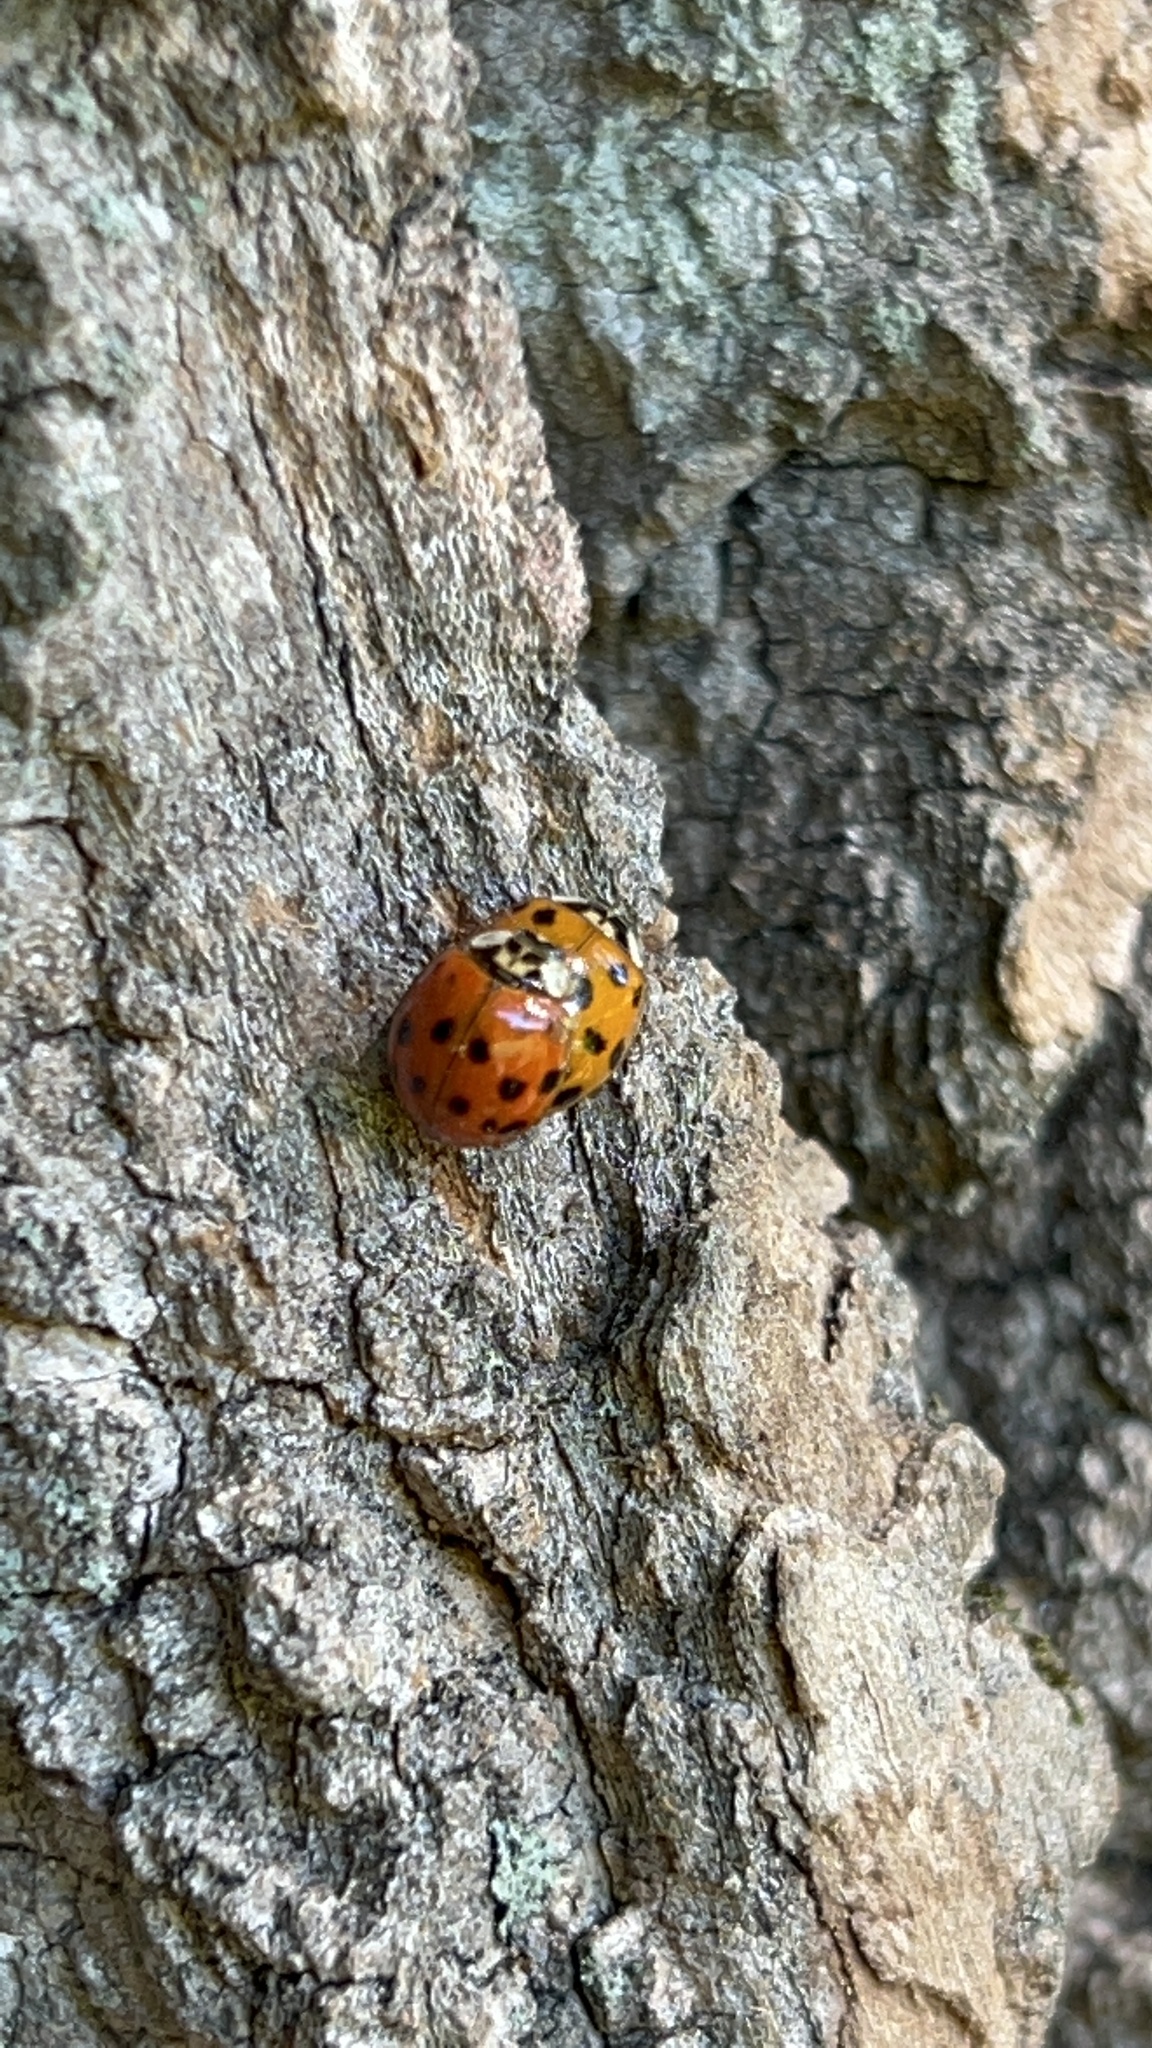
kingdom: Animalia
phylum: Arthropoda
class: Insecta
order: Coleoptera
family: Coccinellidae
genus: Harmonia
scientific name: Harmonia axyridis
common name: Harlequin ladybird
